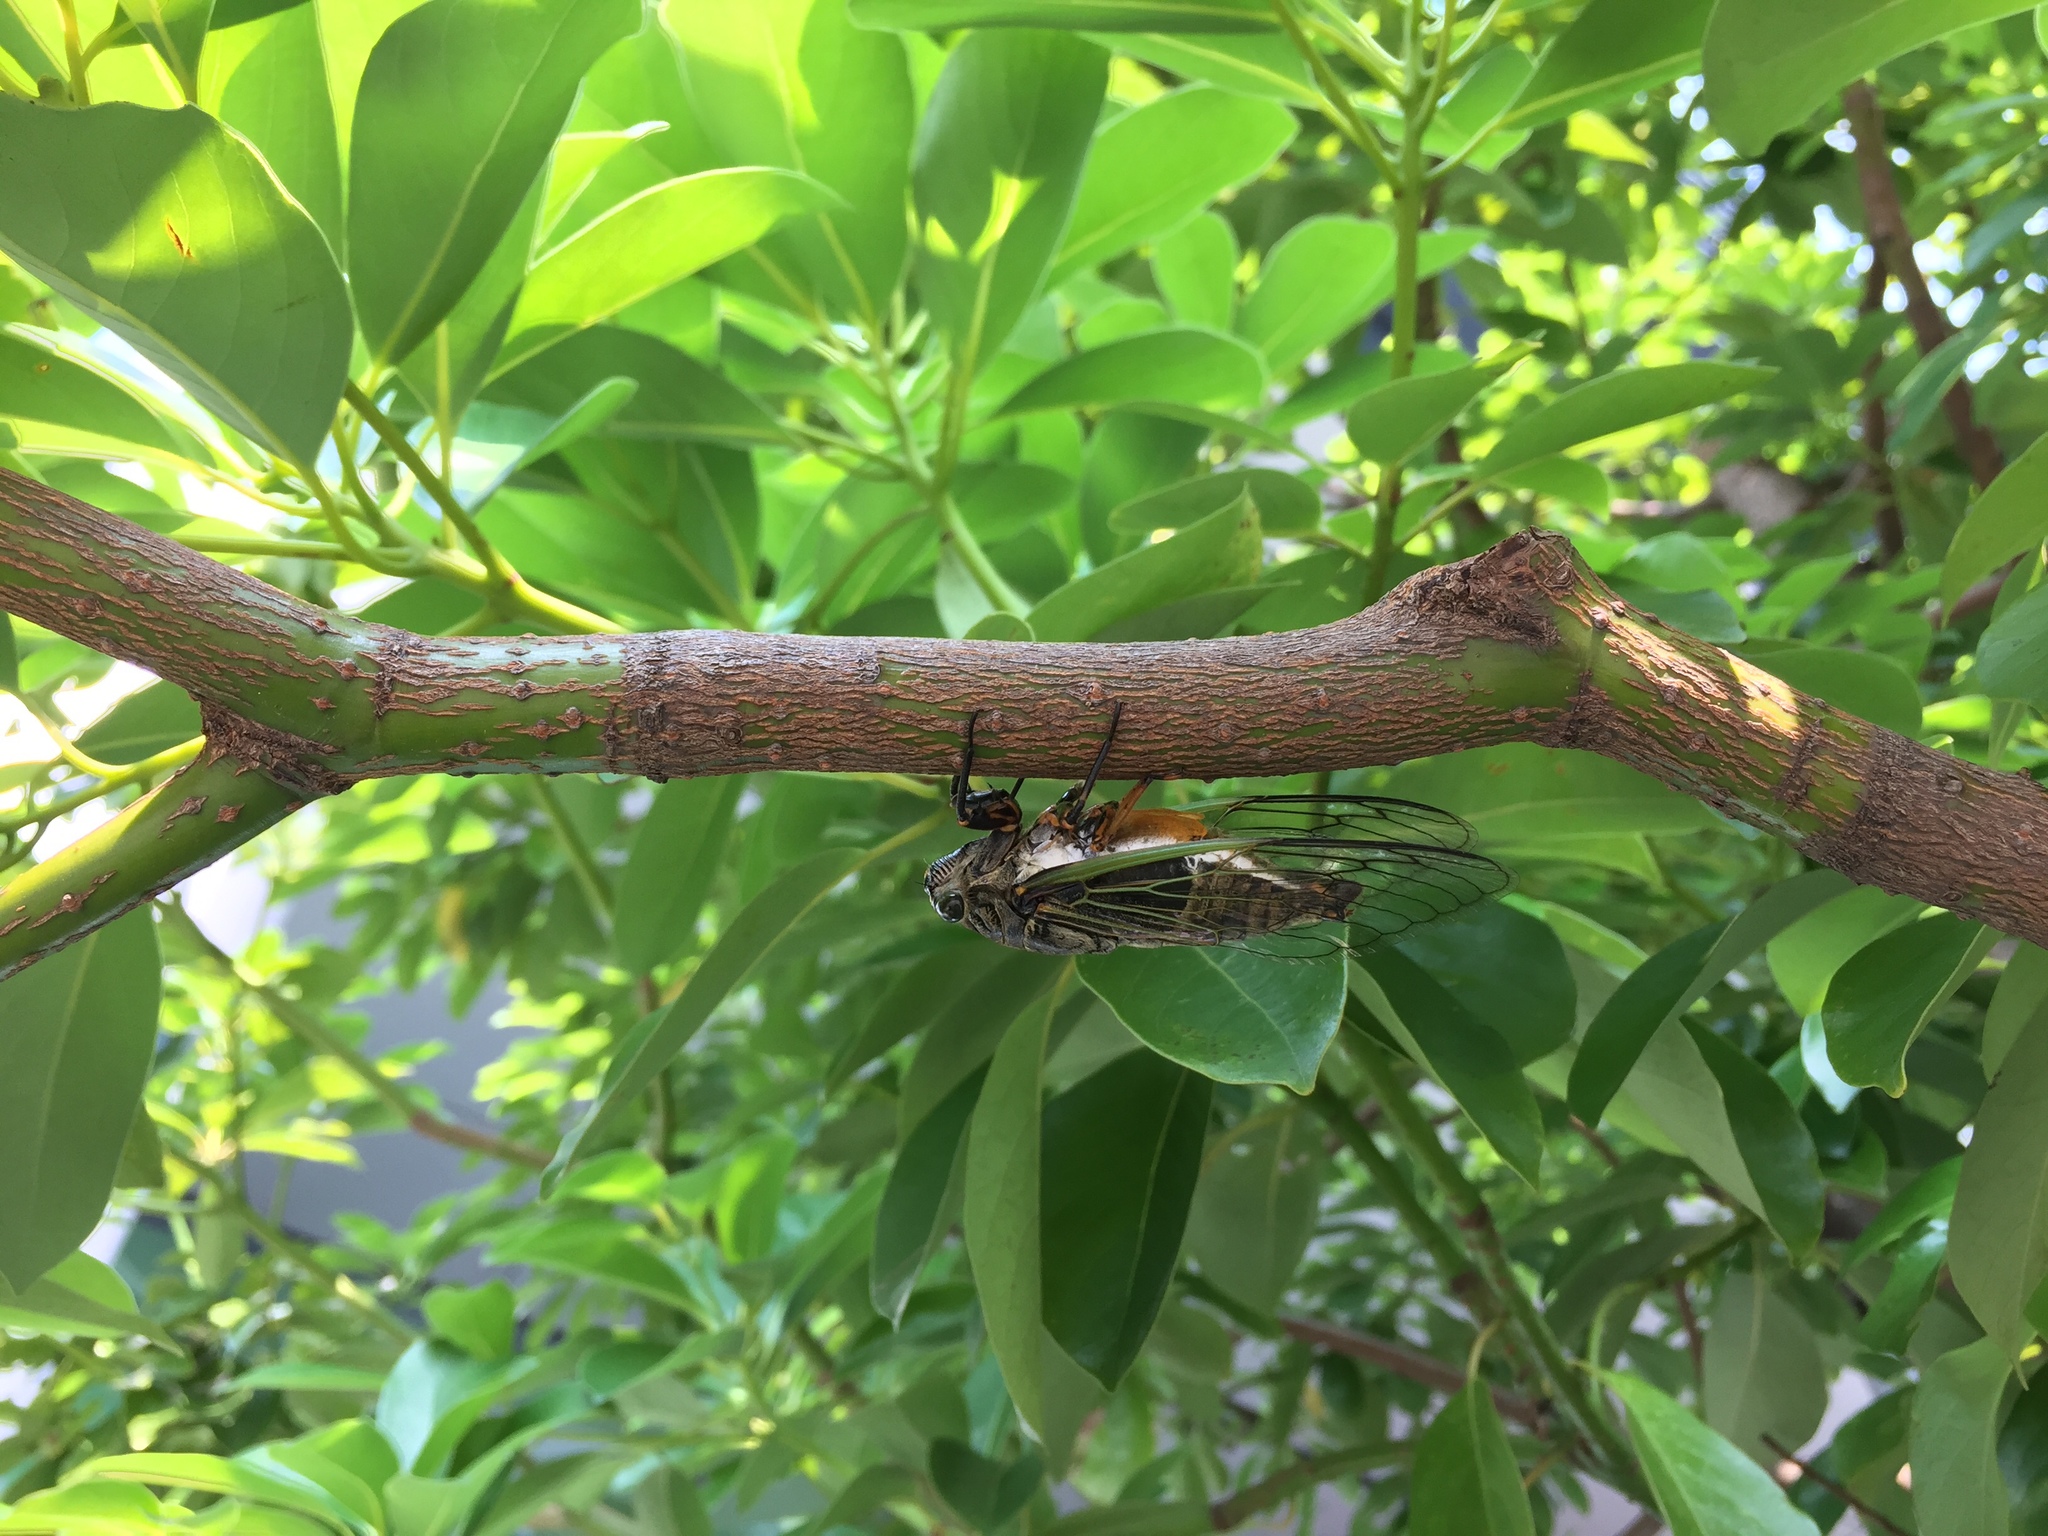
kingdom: Animalia
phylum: Arthropoda
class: Insecta
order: Hemiptera
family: Cicadidae
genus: Cryptotympana
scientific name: Cryptotympana facialis
